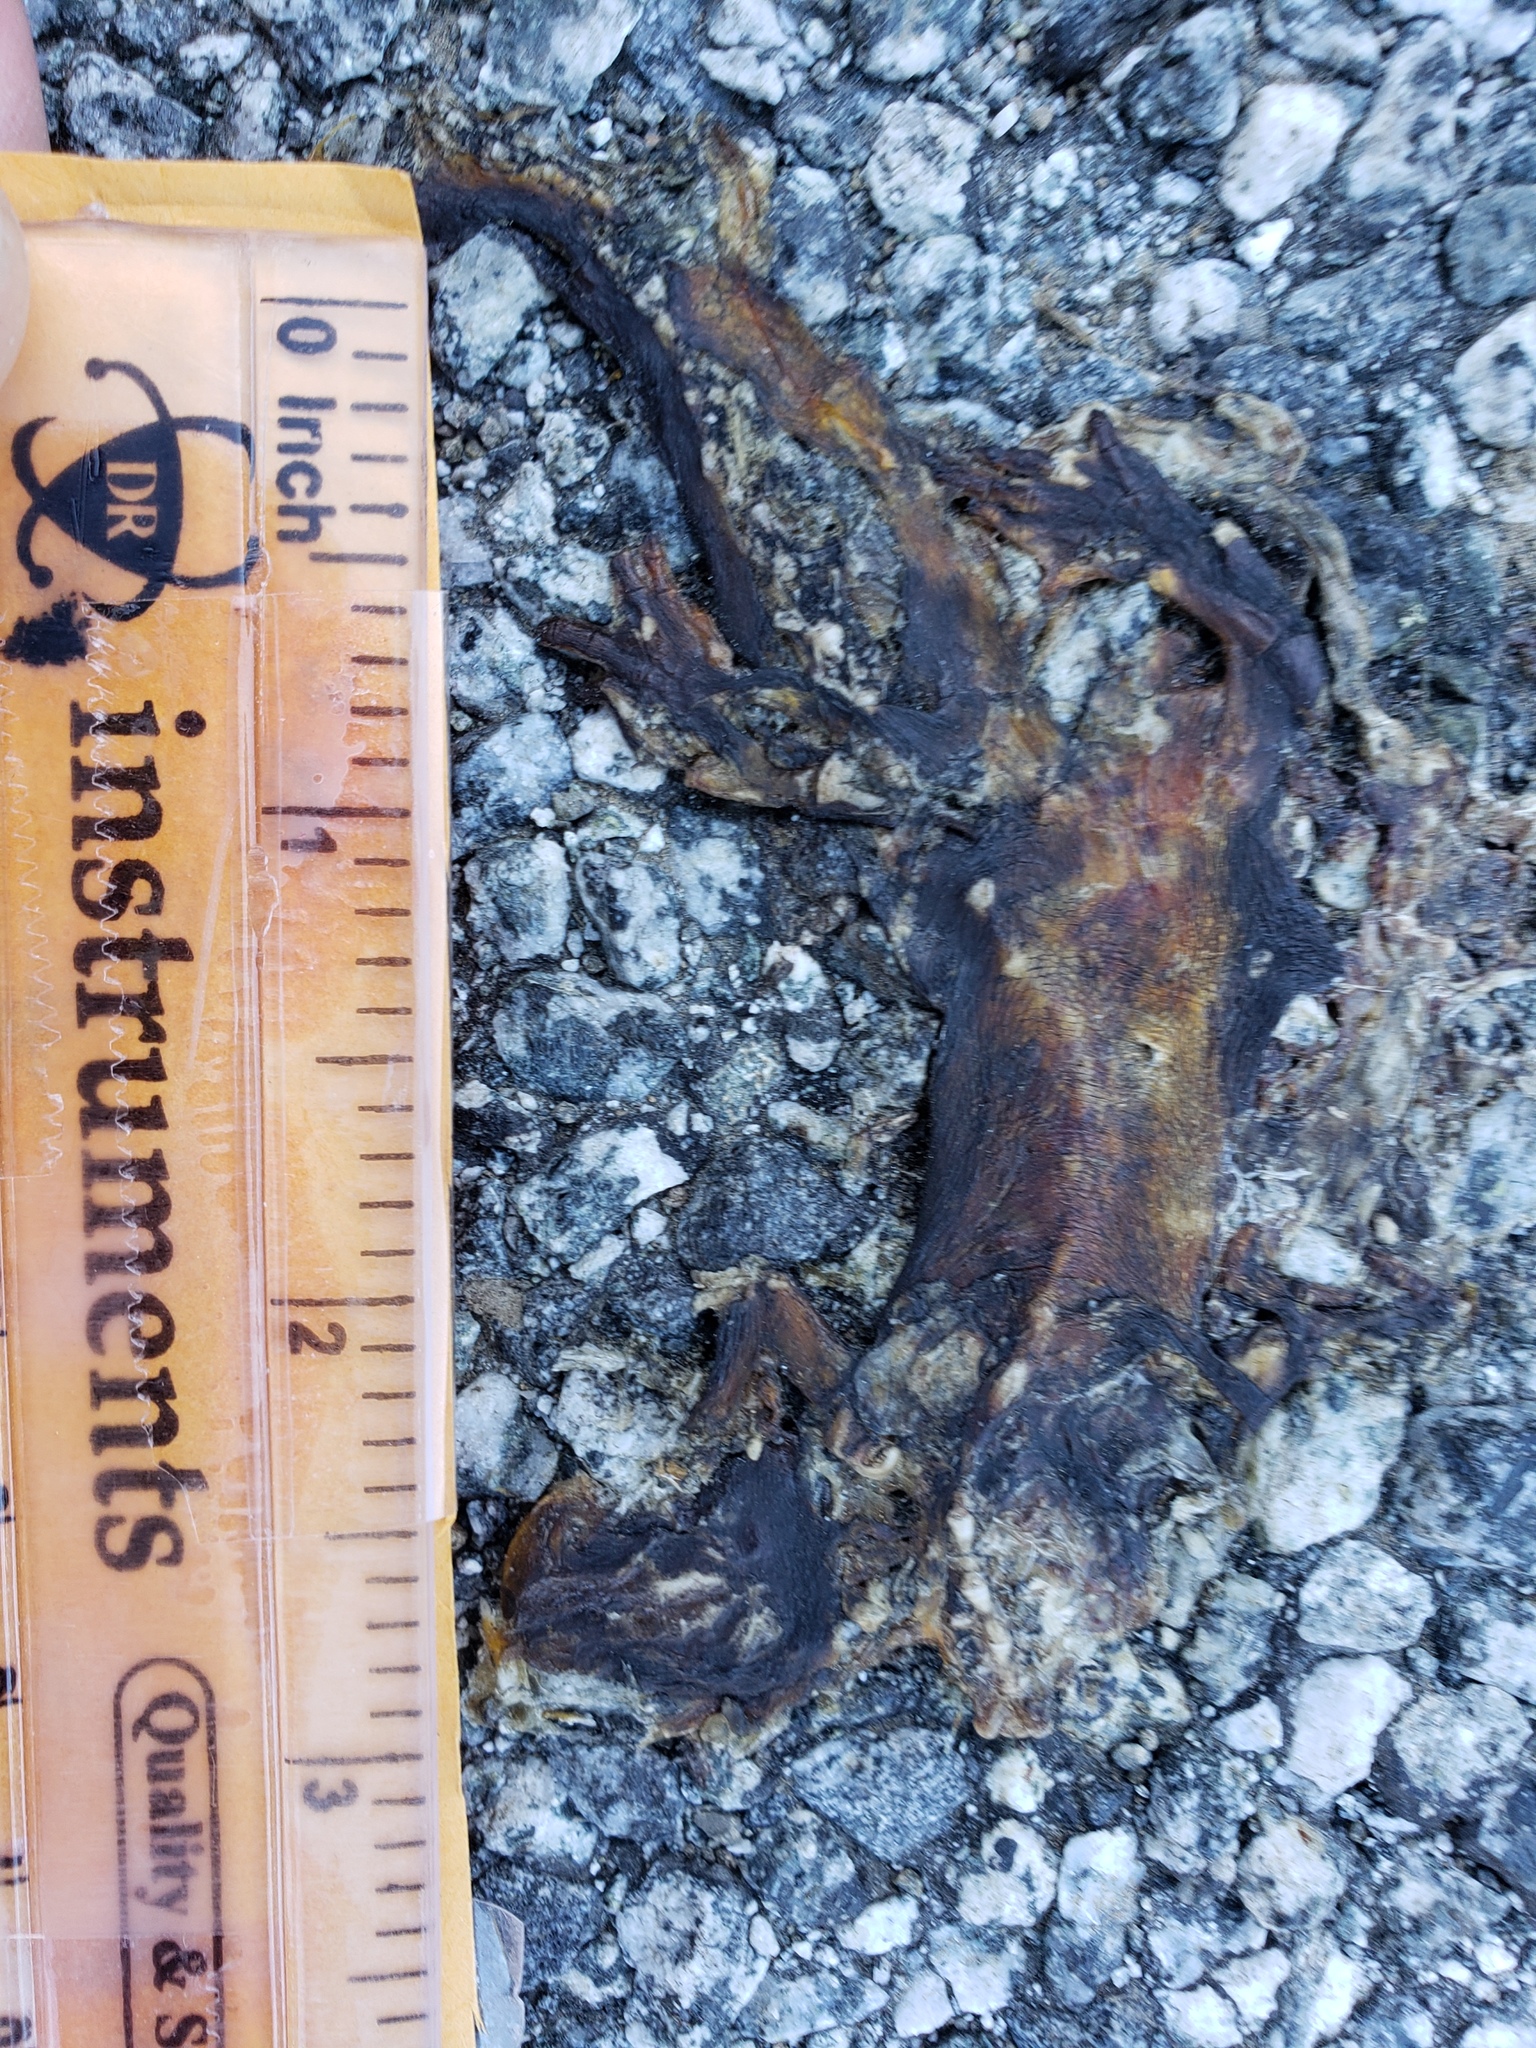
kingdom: Animalia
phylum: Chordata
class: Amphibia
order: Caudata
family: Salamandridae
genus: Taricha
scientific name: Taricha
